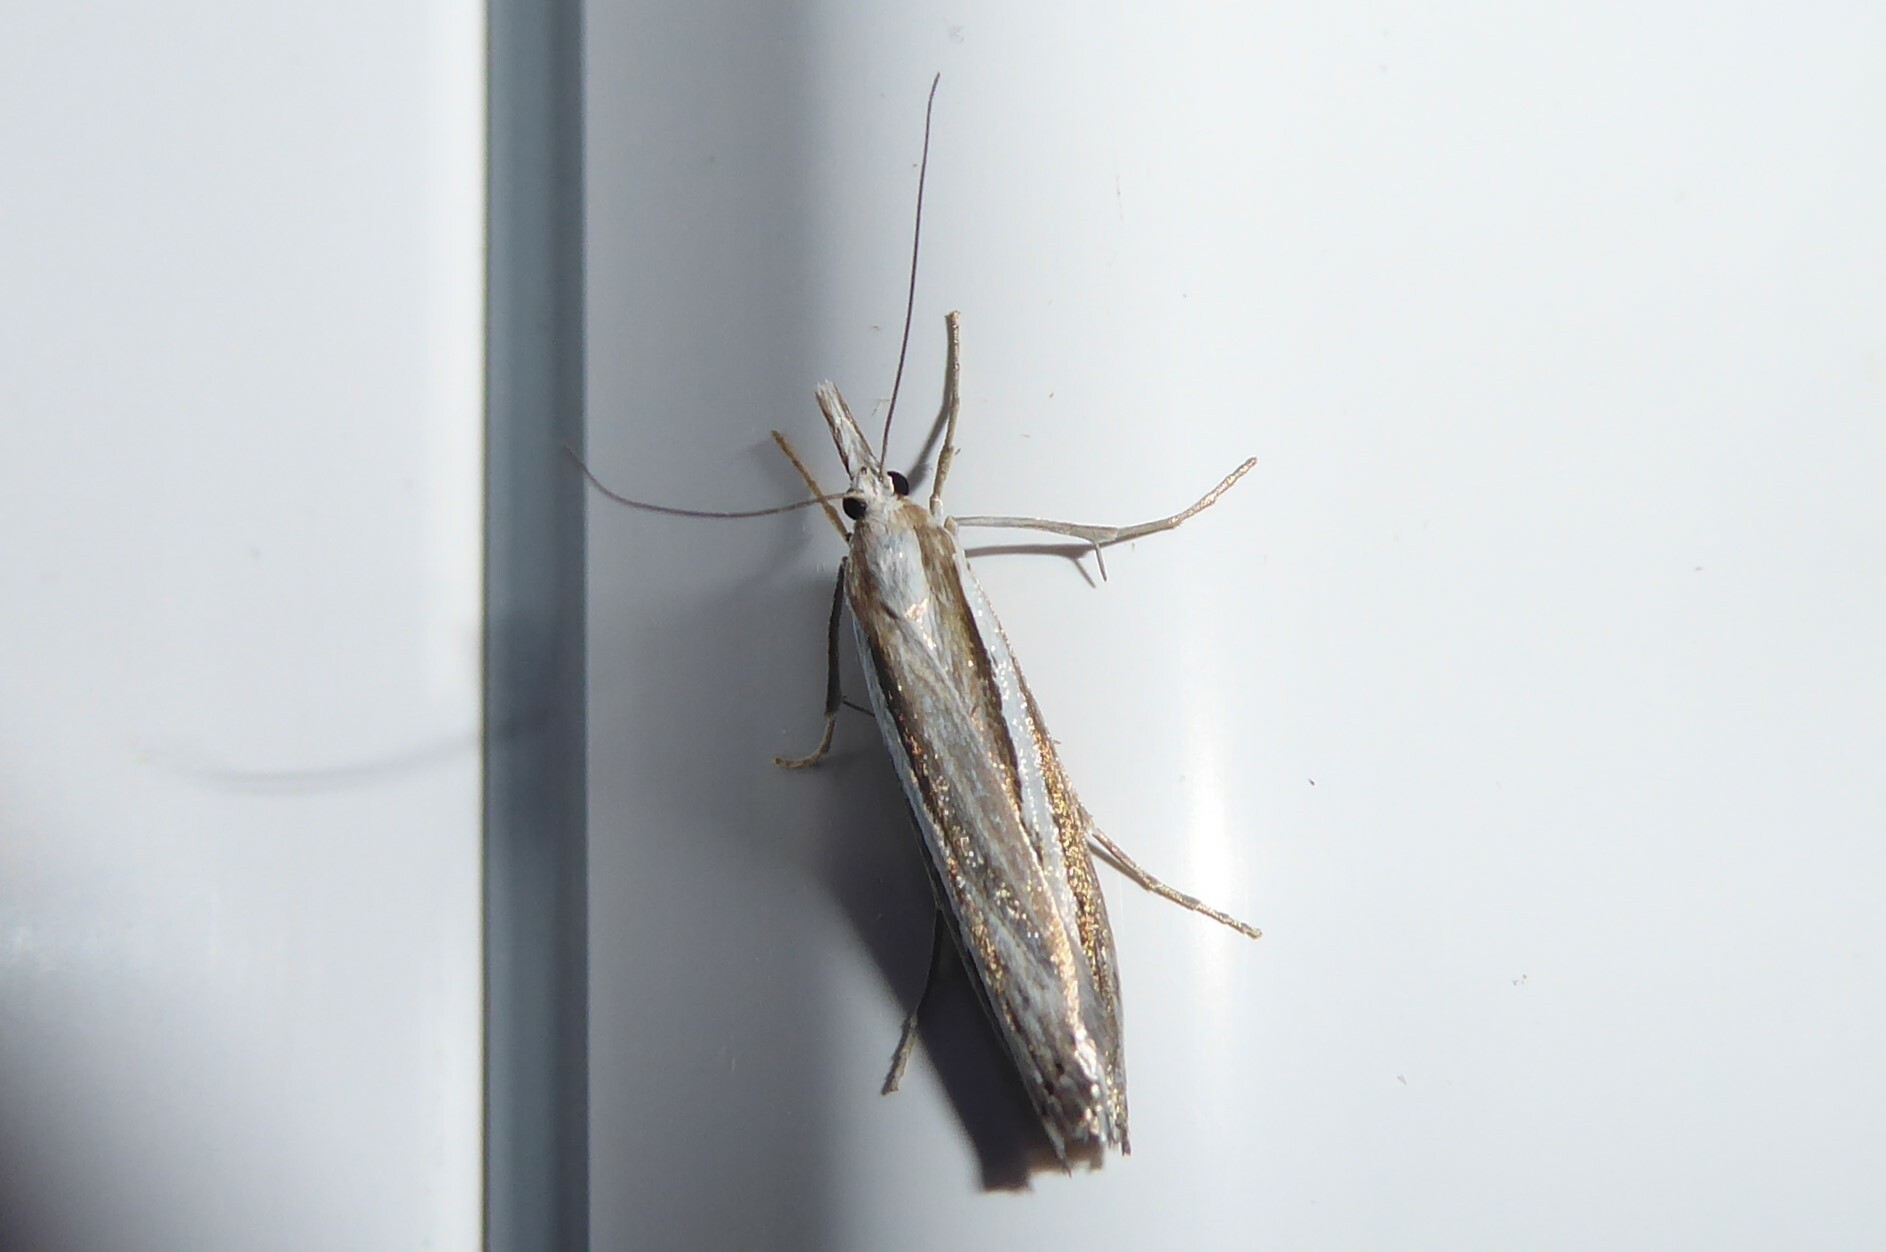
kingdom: Animalia
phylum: Arthropoda
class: Insecta
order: Lepidoptera
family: Crambidae
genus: Orocrambus
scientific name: Orocrambus vittellus
